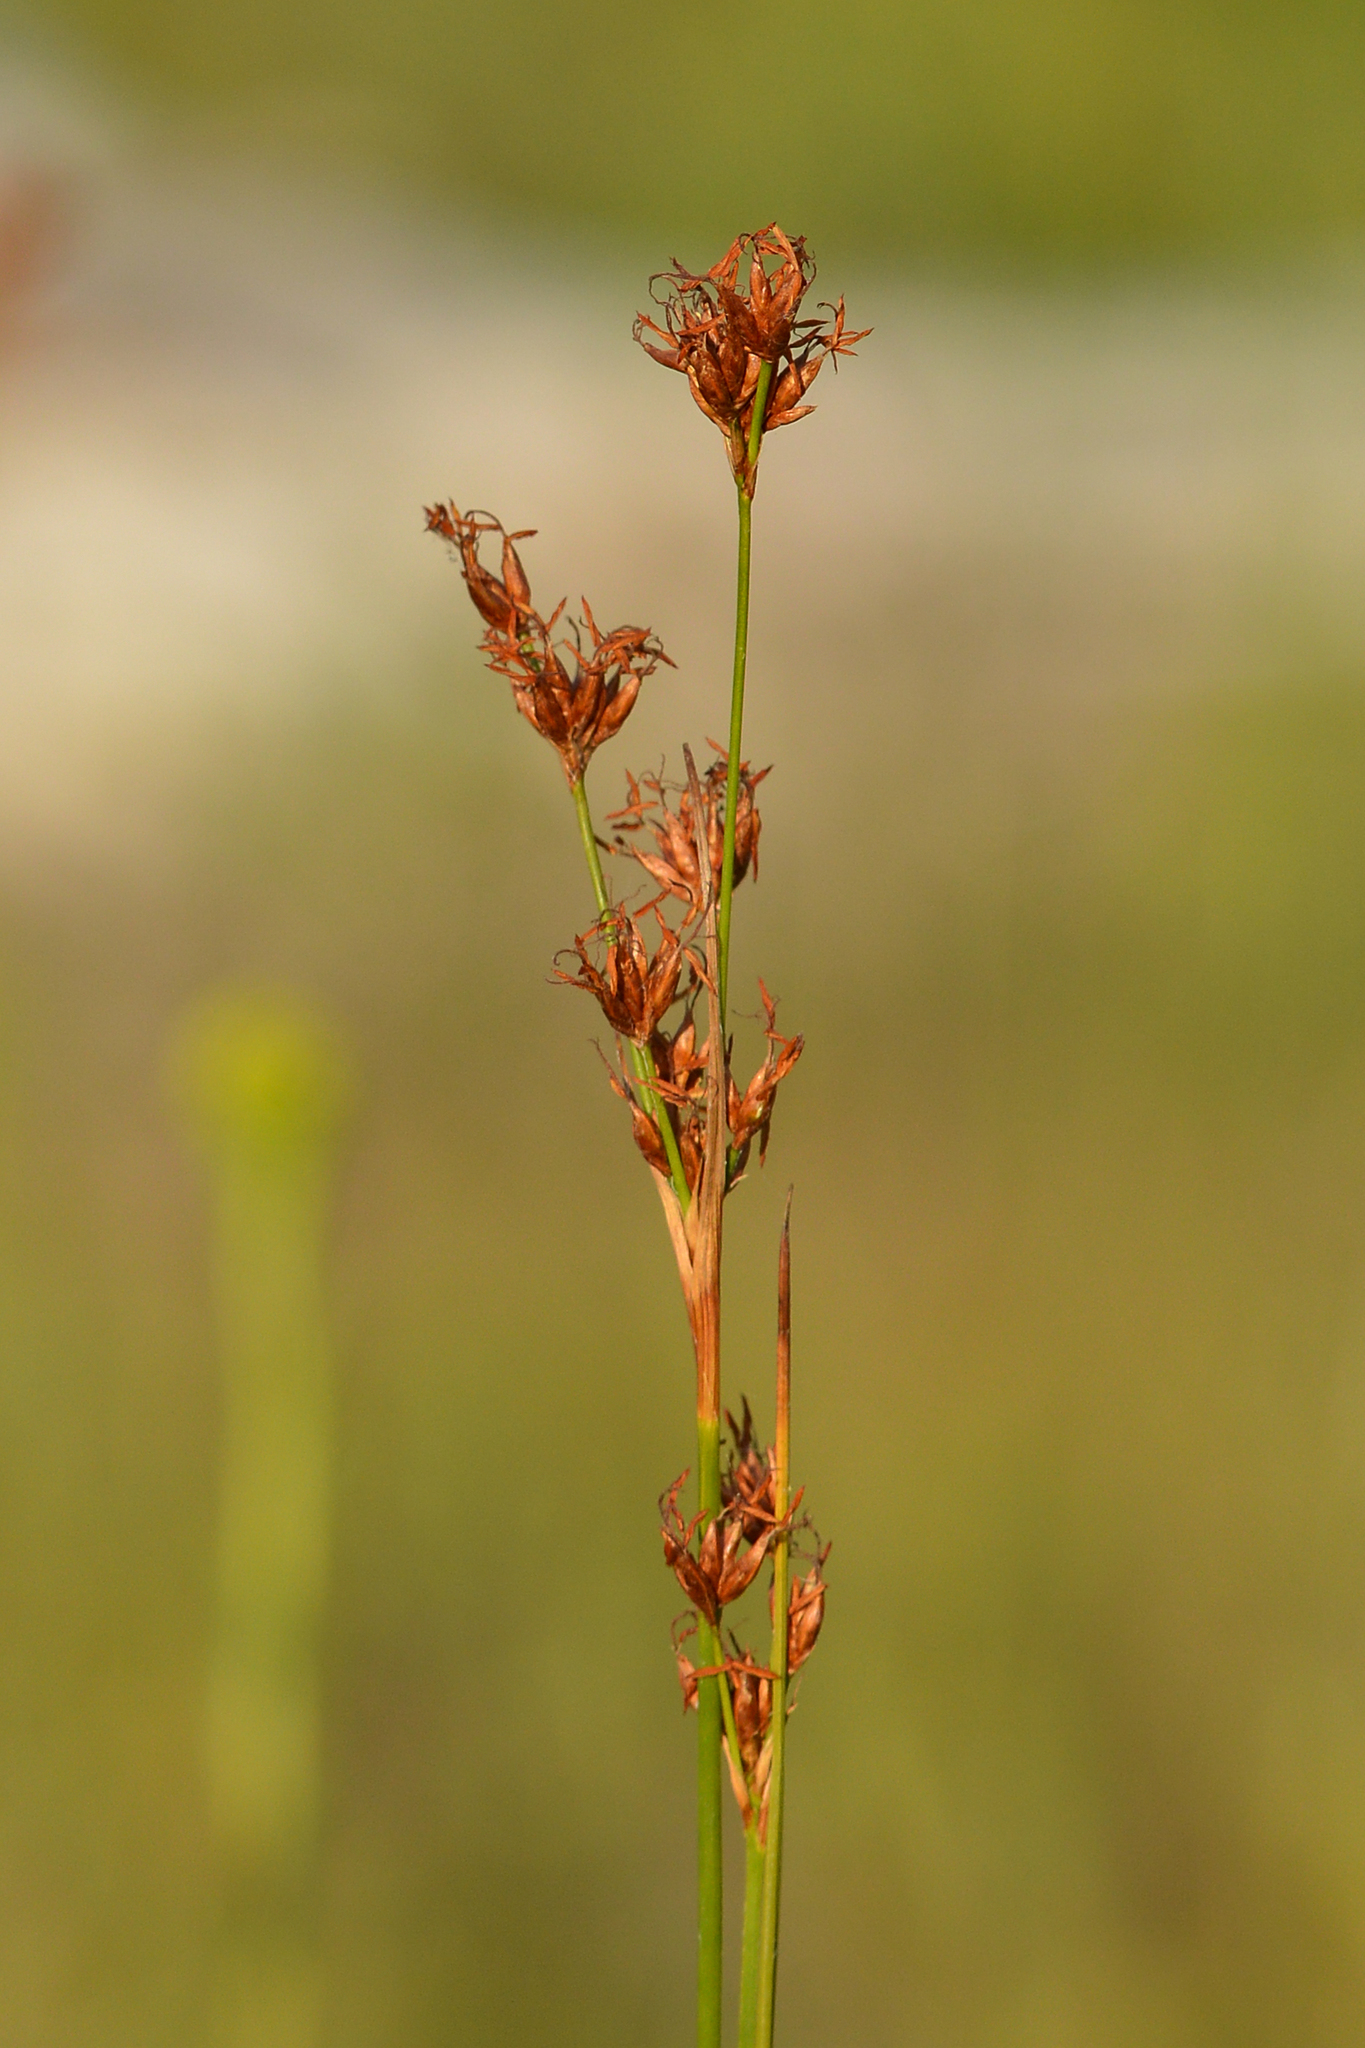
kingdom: Plantae
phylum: Tracheophyta
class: Liliopsida
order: Poales
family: Cyperaceae
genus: Cladium
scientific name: Cladium mariscoides
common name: Smooth sawgrass
